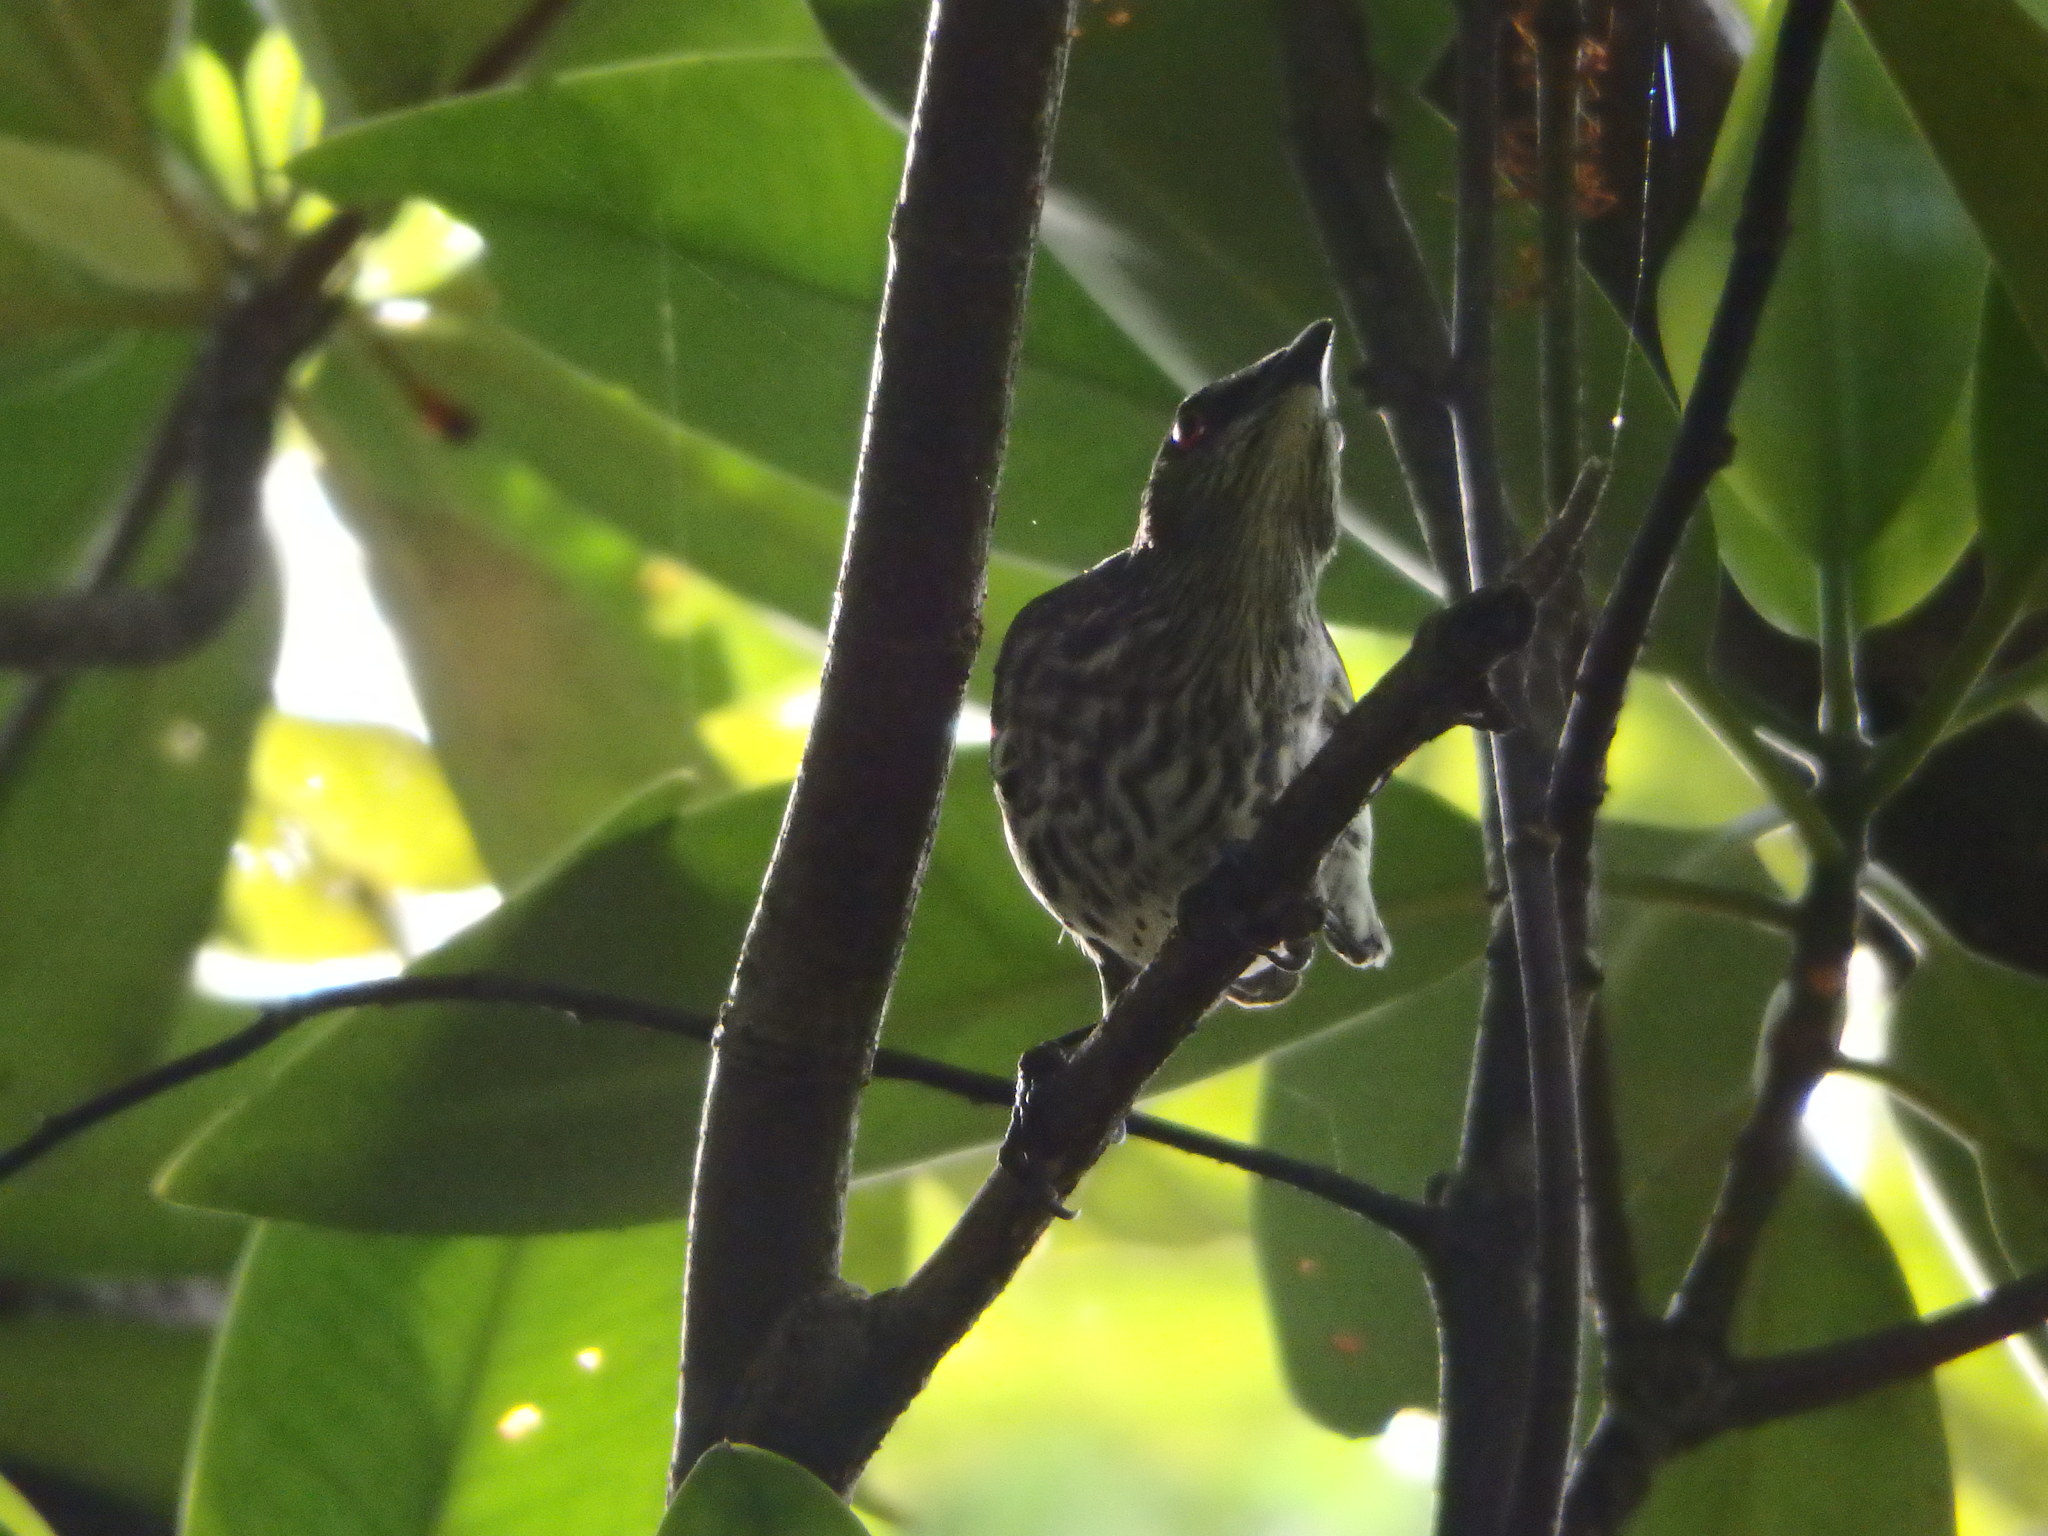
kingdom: Animalia
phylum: Chordata
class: Aves
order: Passeriformes
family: Sturnidae
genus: Aplonis
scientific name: Aplonis panayensis
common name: Asian glossy starling
